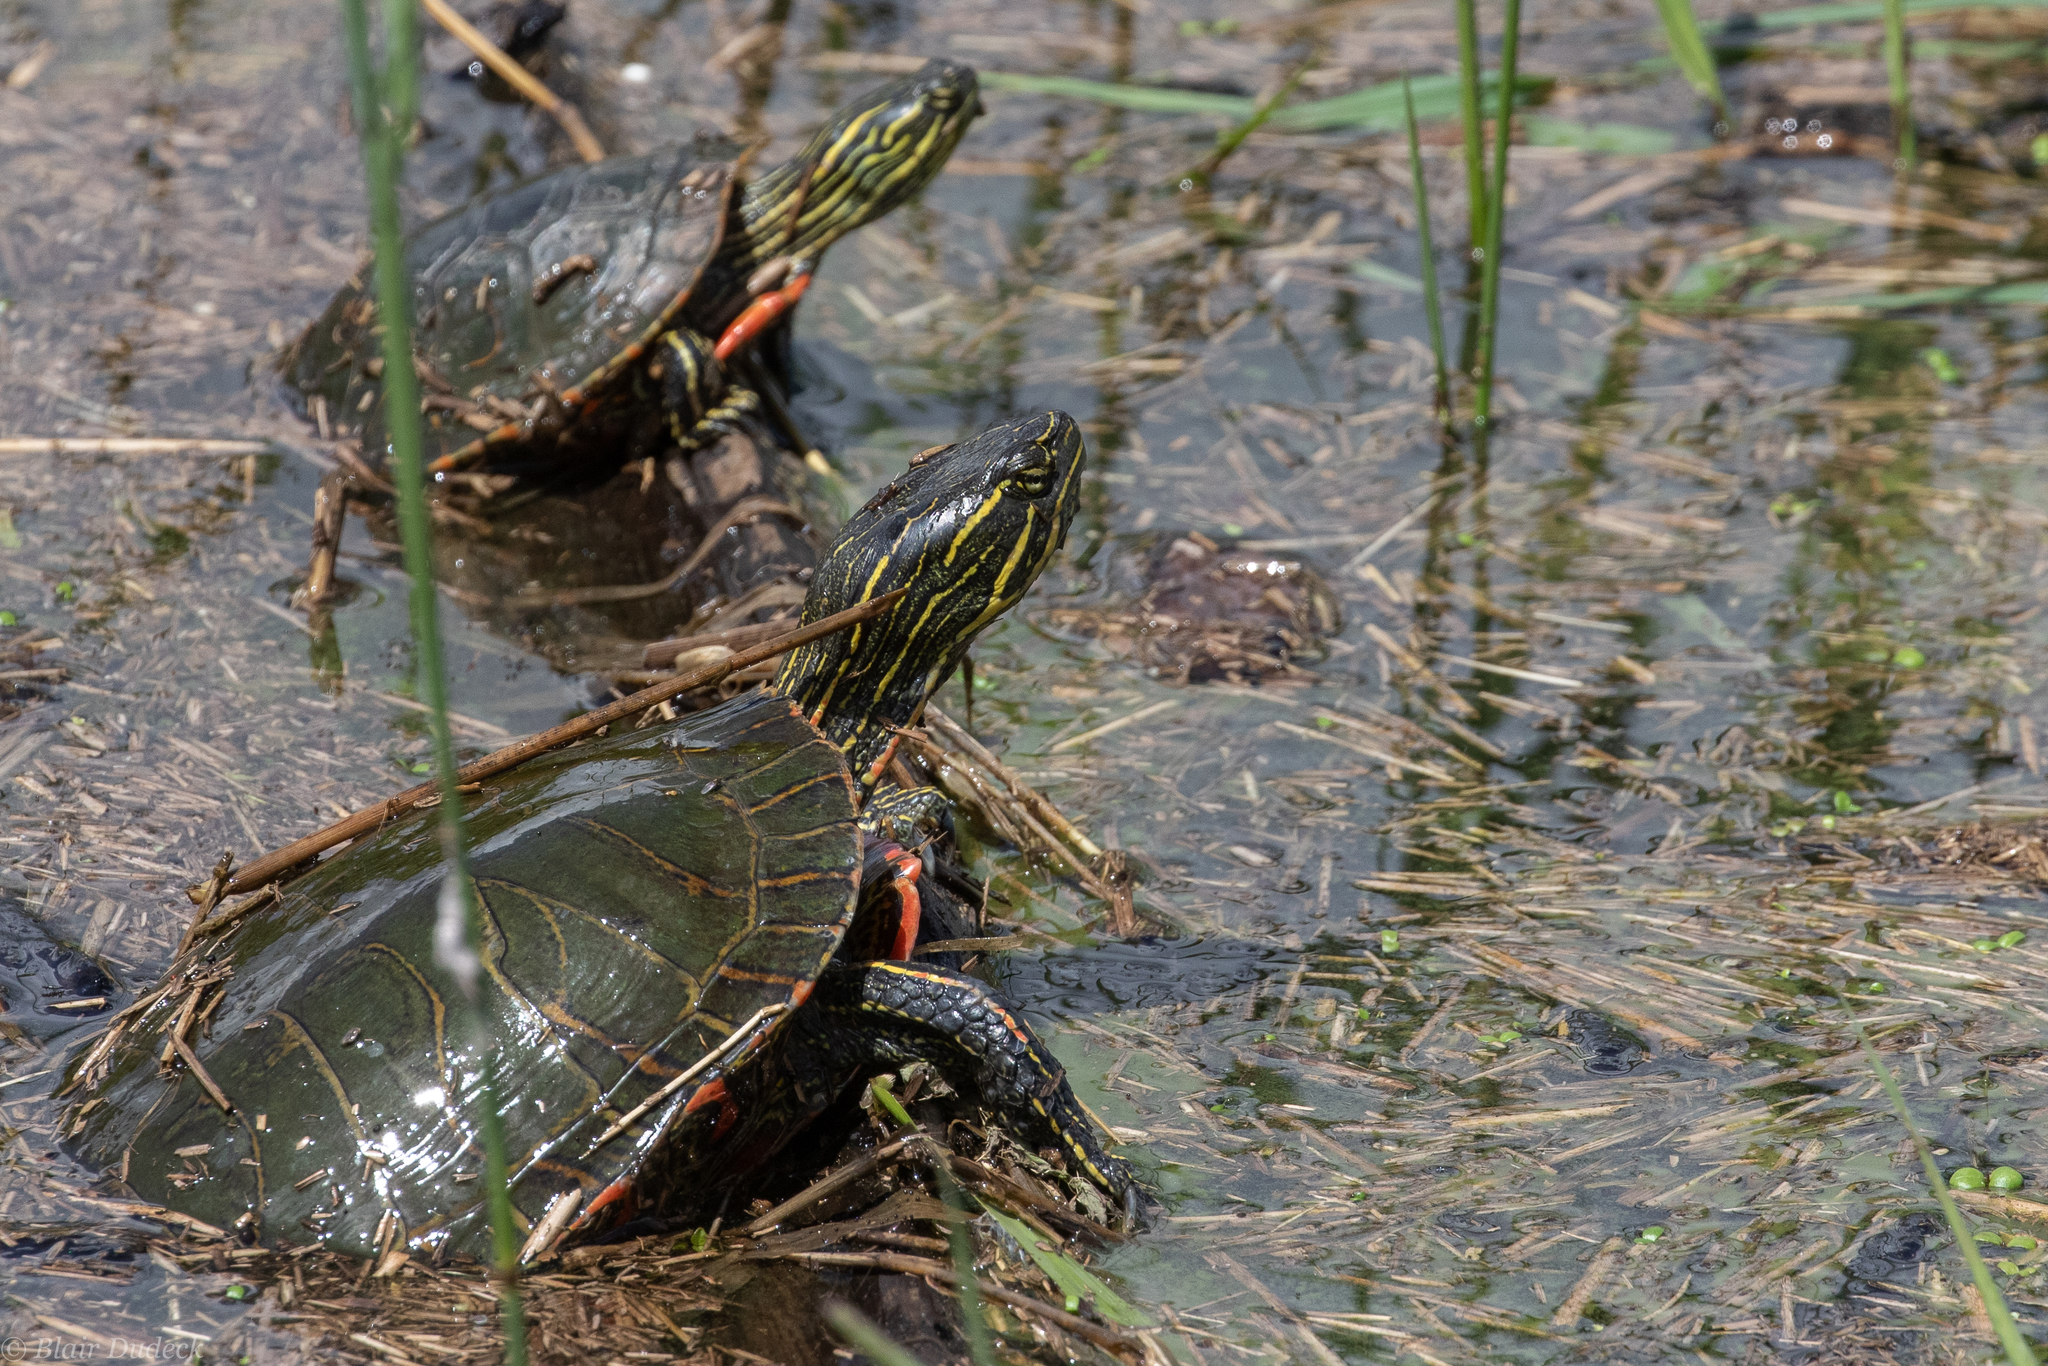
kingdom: Animalia
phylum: Chordata
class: Testudines
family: Emydidae
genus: Chrysemys
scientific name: Chrysemys picta
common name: Painted turtle
